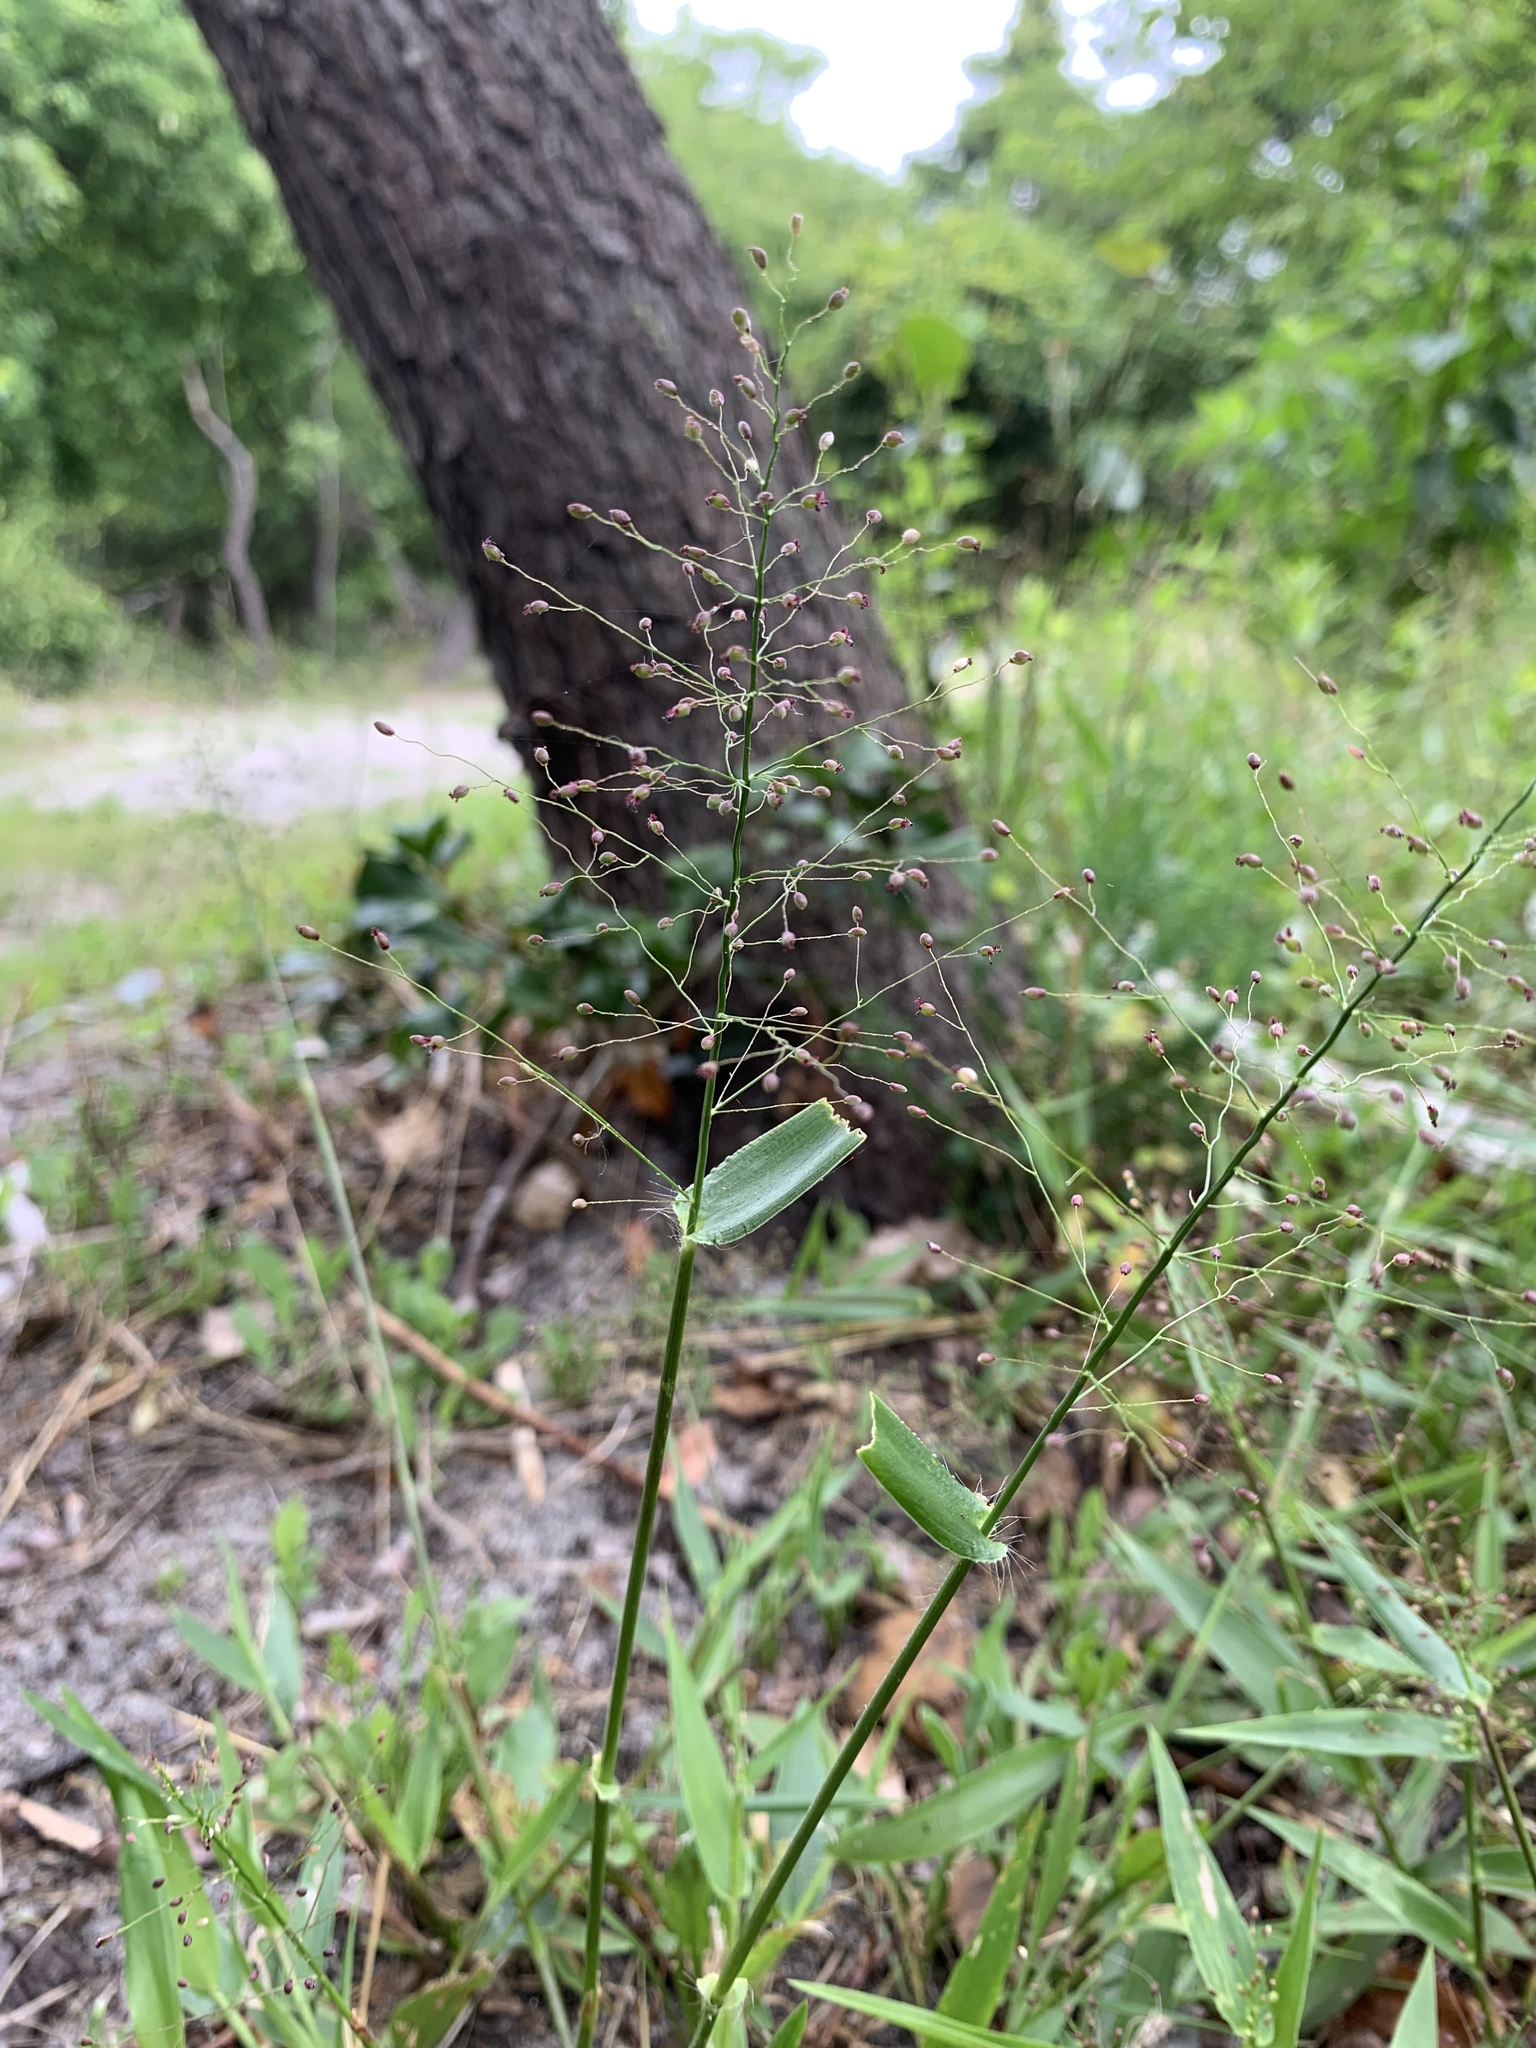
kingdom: Plantae
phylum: Tracheophyta
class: Liliopsida
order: Poales
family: Poaceae
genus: Dichanthelium
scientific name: Dichanthelium sphaerocarpon
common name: Round-fruited panicgrass
